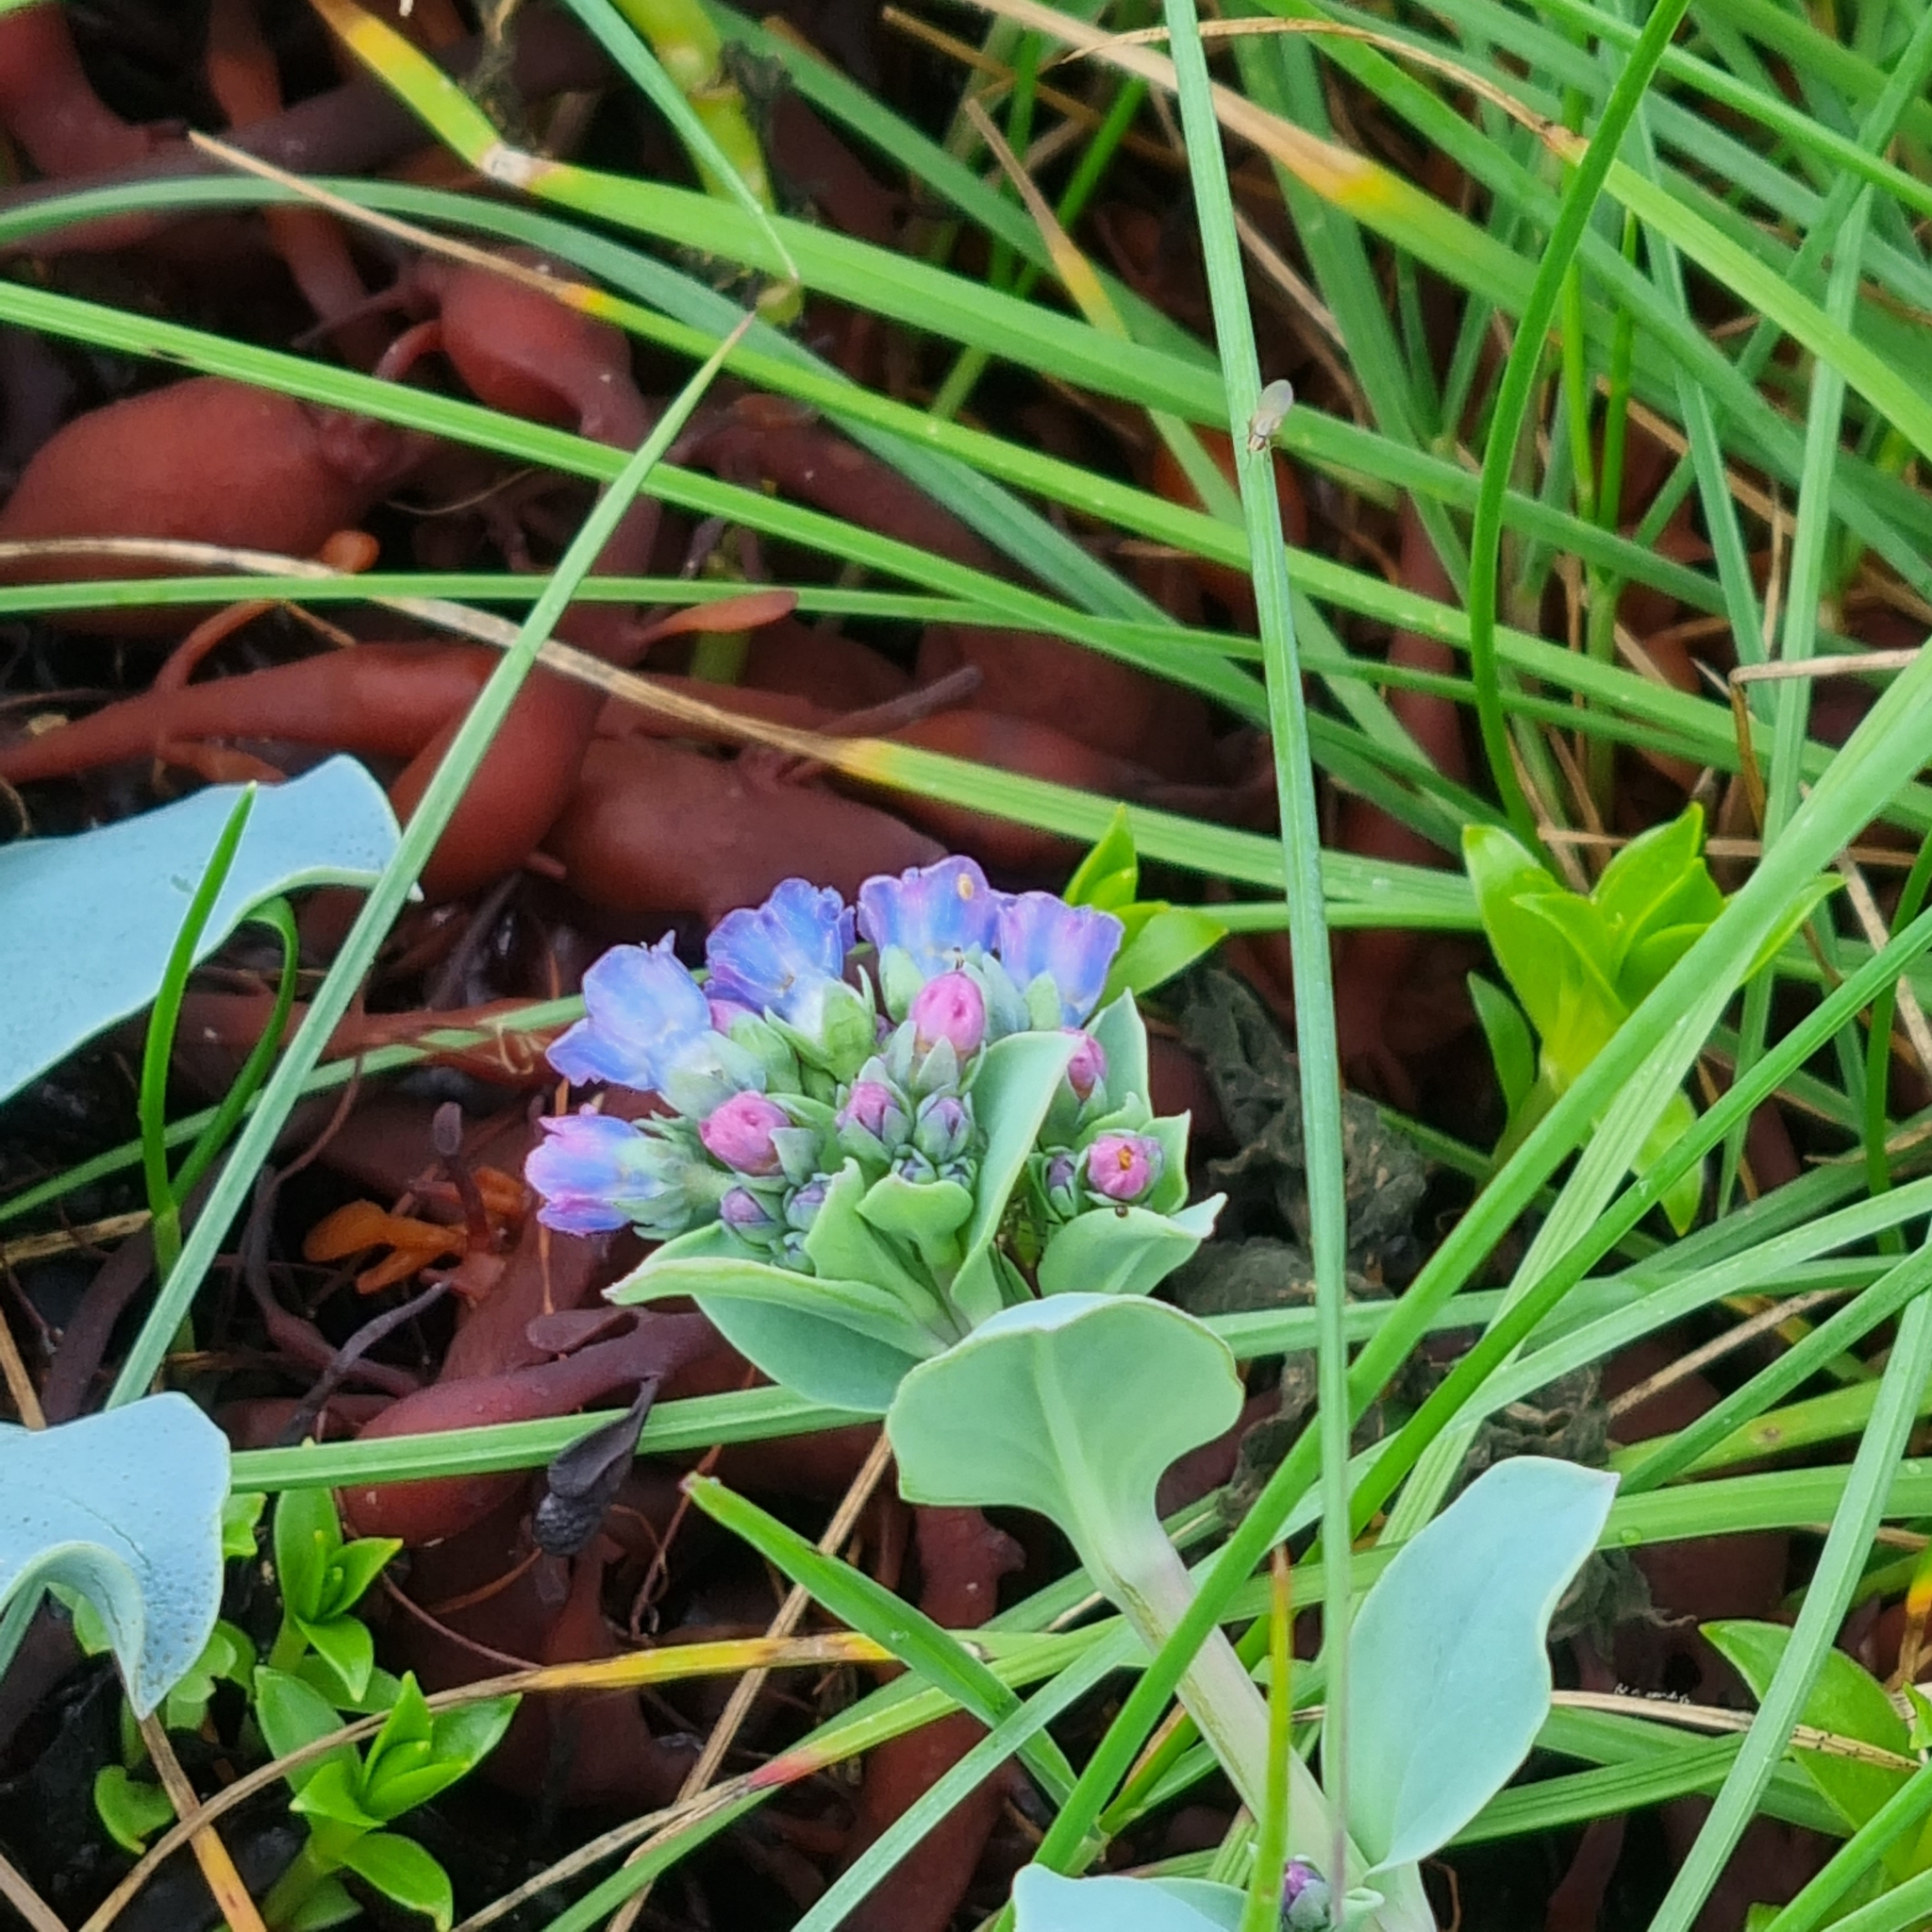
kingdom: Plantae
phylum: Tracheophyta
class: Magnoliopsida
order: Boraginales
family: Boraginaceae
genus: Mertensia
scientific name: Mertensia maritima
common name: Oysterplant
